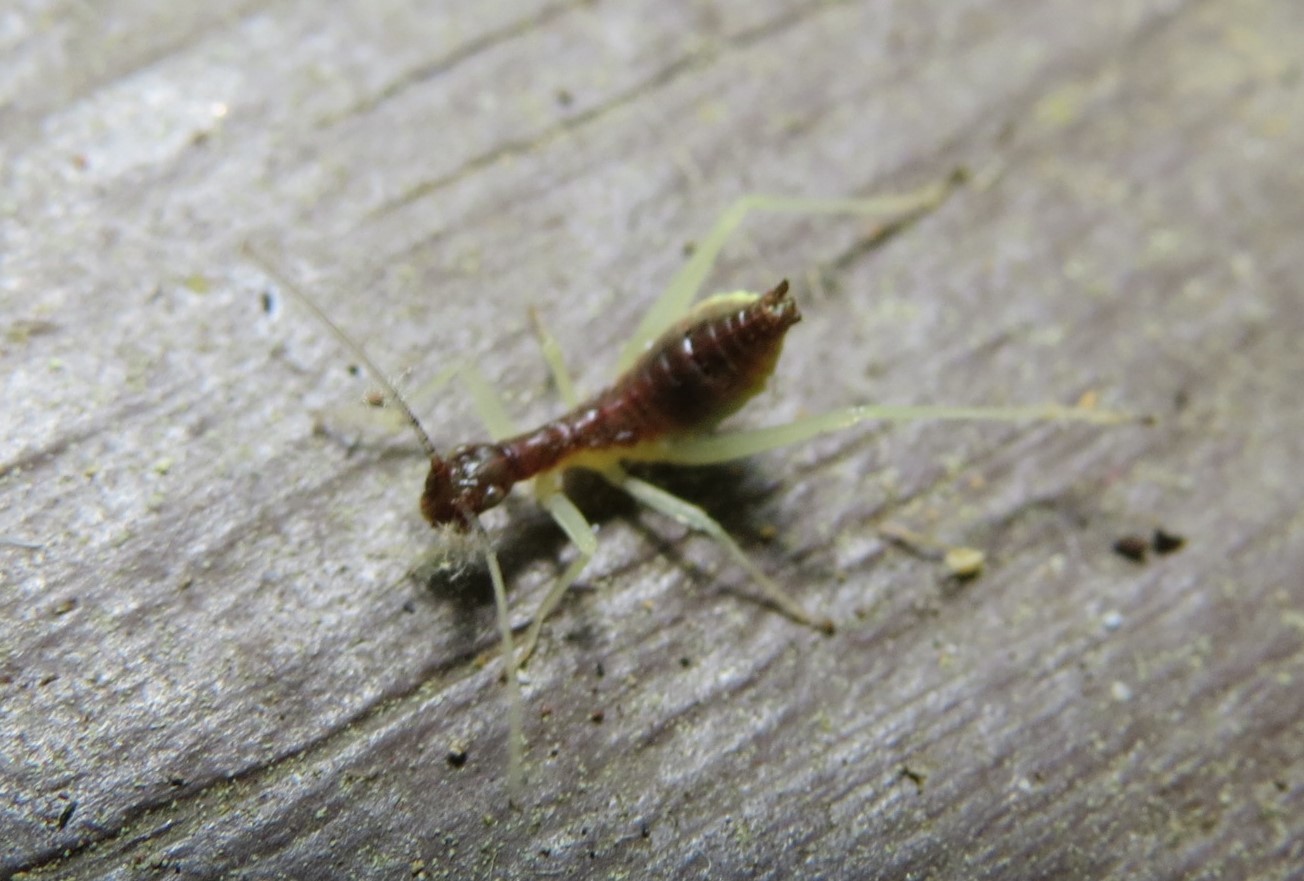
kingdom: Animalia
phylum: Arthropoda
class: Insecta
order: Orthoptera
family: Gryllidae
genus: Neoxabea
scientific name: Neoxabea bipunctata
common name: Two-spotted tree cricket
